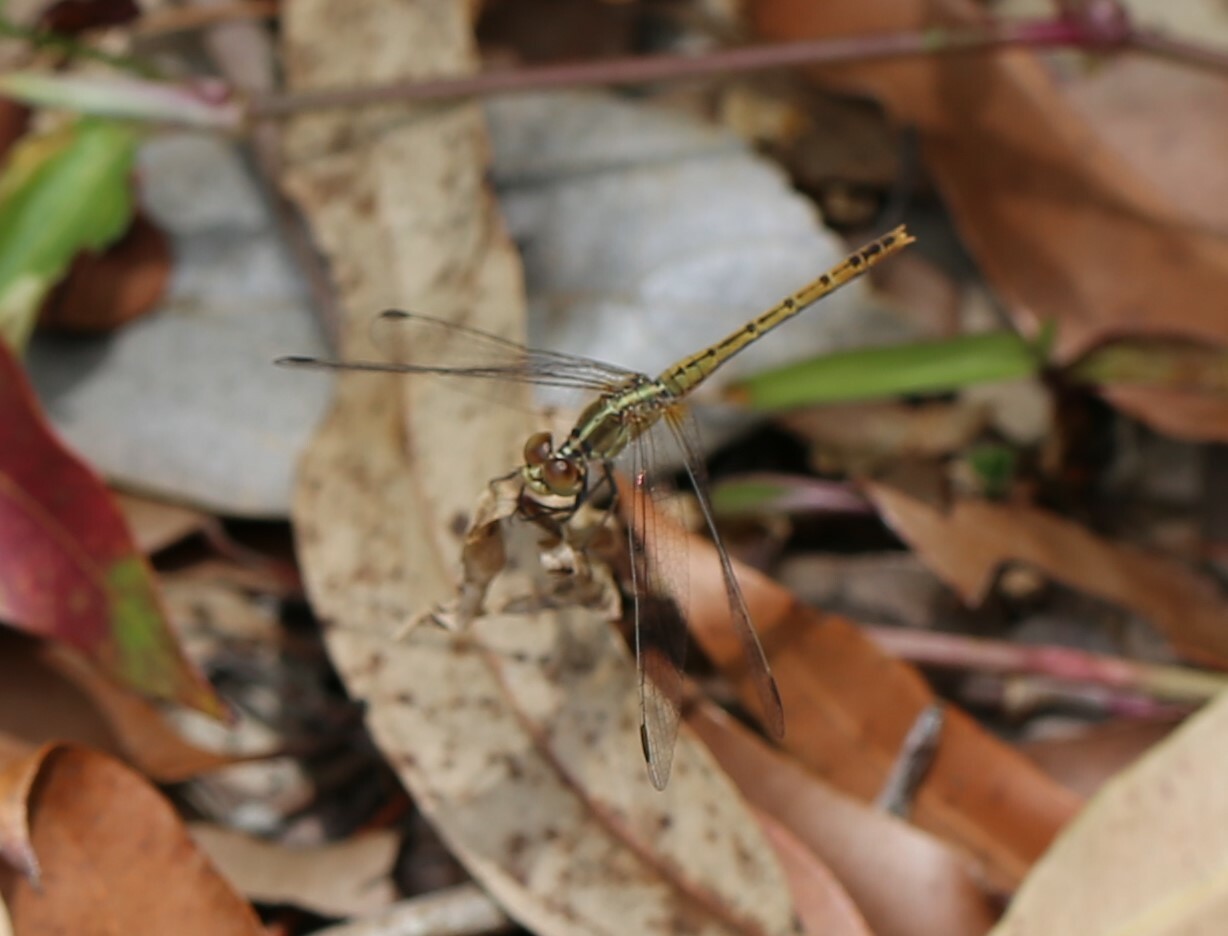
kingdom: Animalia
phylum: Arthropoda
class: Insecta
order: Odonata
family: Libellulidae
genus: Diplacodes
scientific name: Diplacodes bipunctata
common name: Red percher dragonfly
